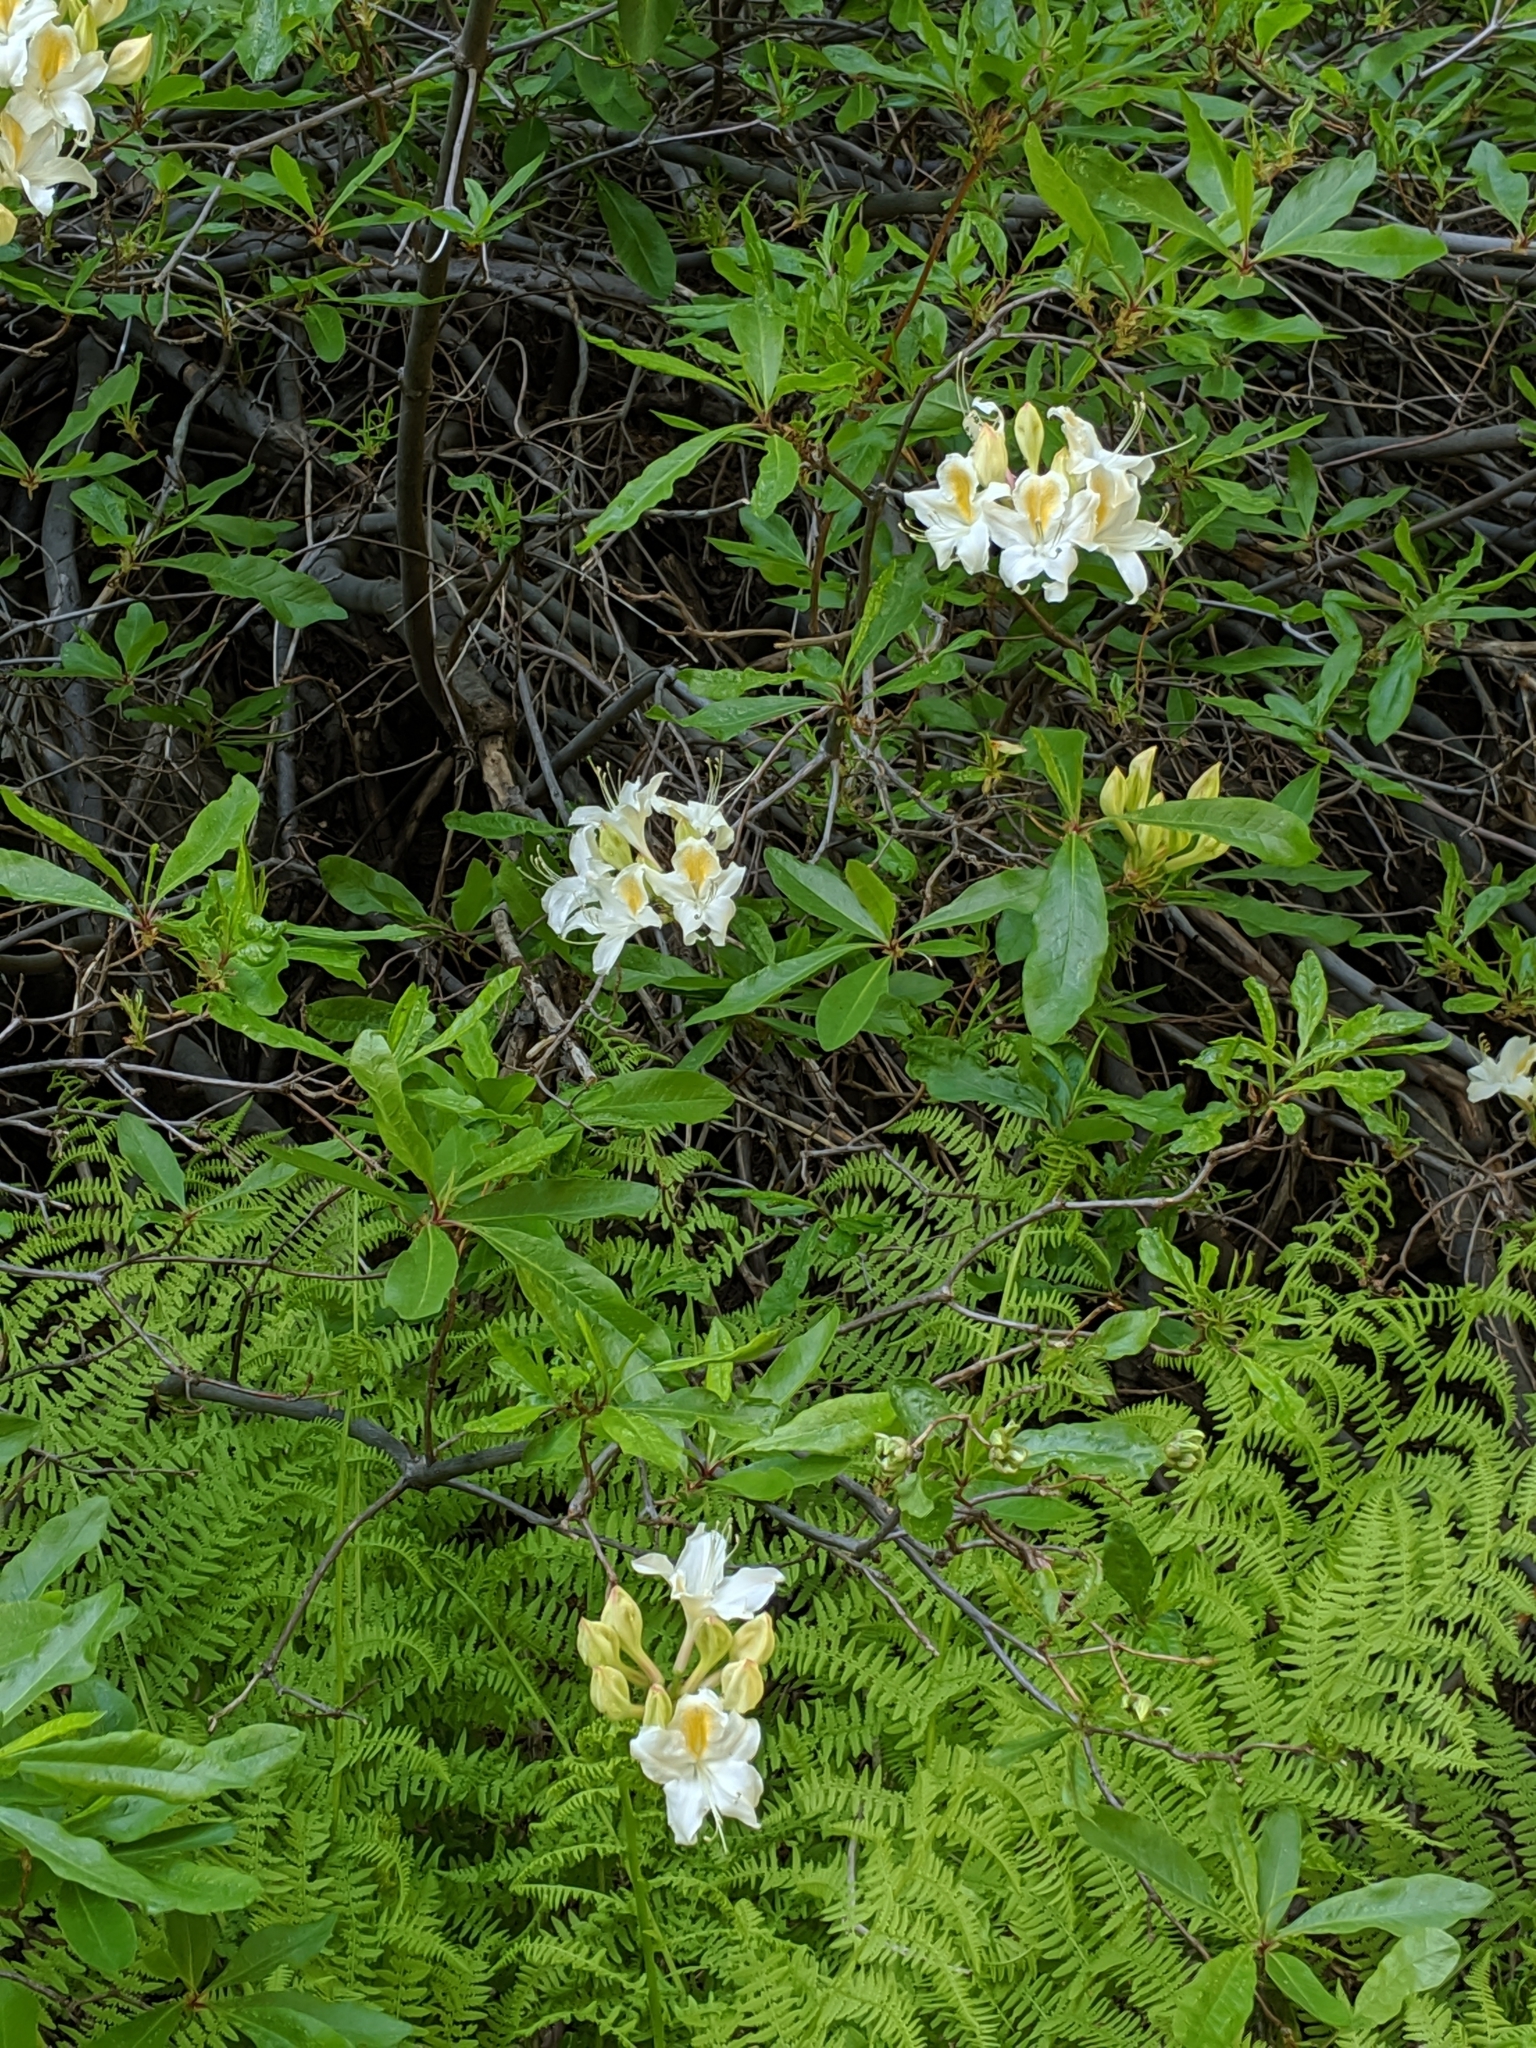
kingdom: Plantae
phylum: Tracheophyta
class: Magnoliopsida
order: Ericales
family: Ericaceae
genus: Rhododendron
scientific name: Rhododendron occidentale
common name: Western azalea
